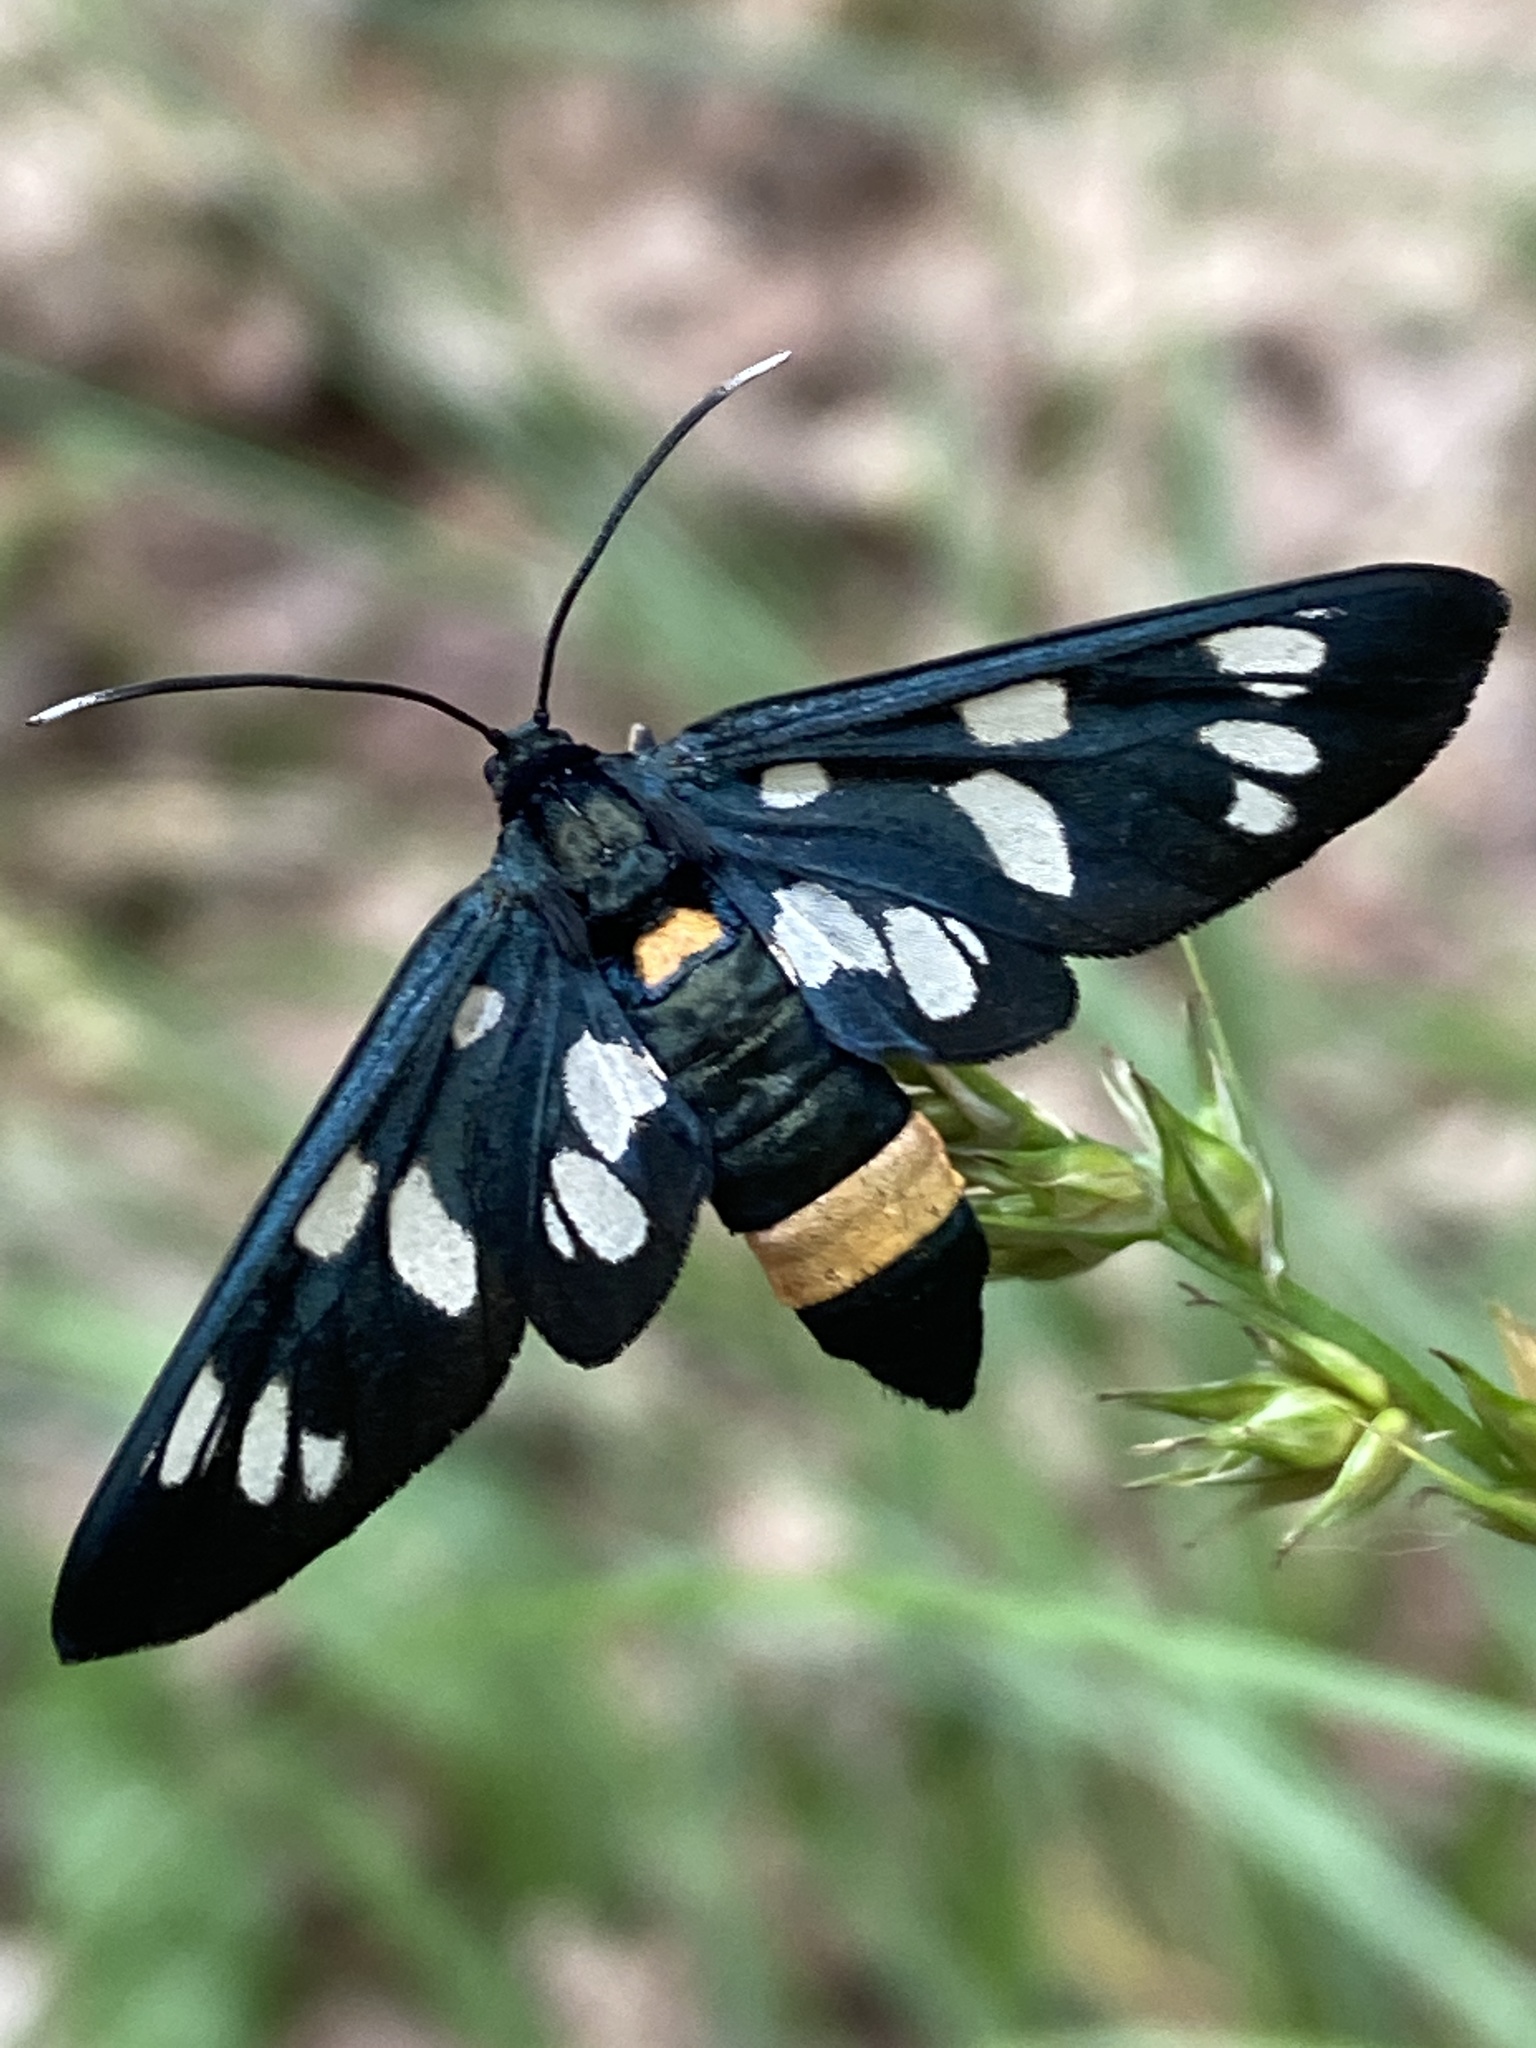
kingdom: Animalia
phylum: Arthropoda
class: Insecta
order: Lepidoptera
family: Erebidae
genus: Amata
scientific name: Amata phegea
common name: Nine-spotted
